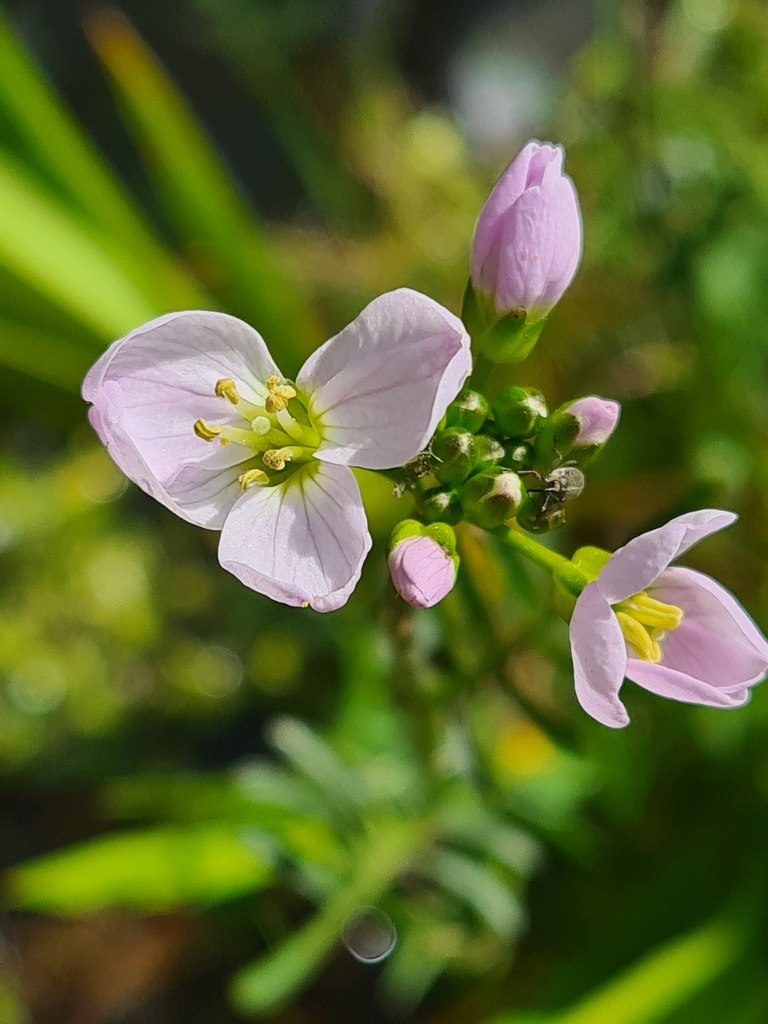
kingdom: Plantae
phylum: Tracheophyta
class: Magnoliopsida
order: Brassicales
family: Brassicaceae
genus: Cardamine
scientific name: Cardamine pratensis
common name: Cuckoo flower
